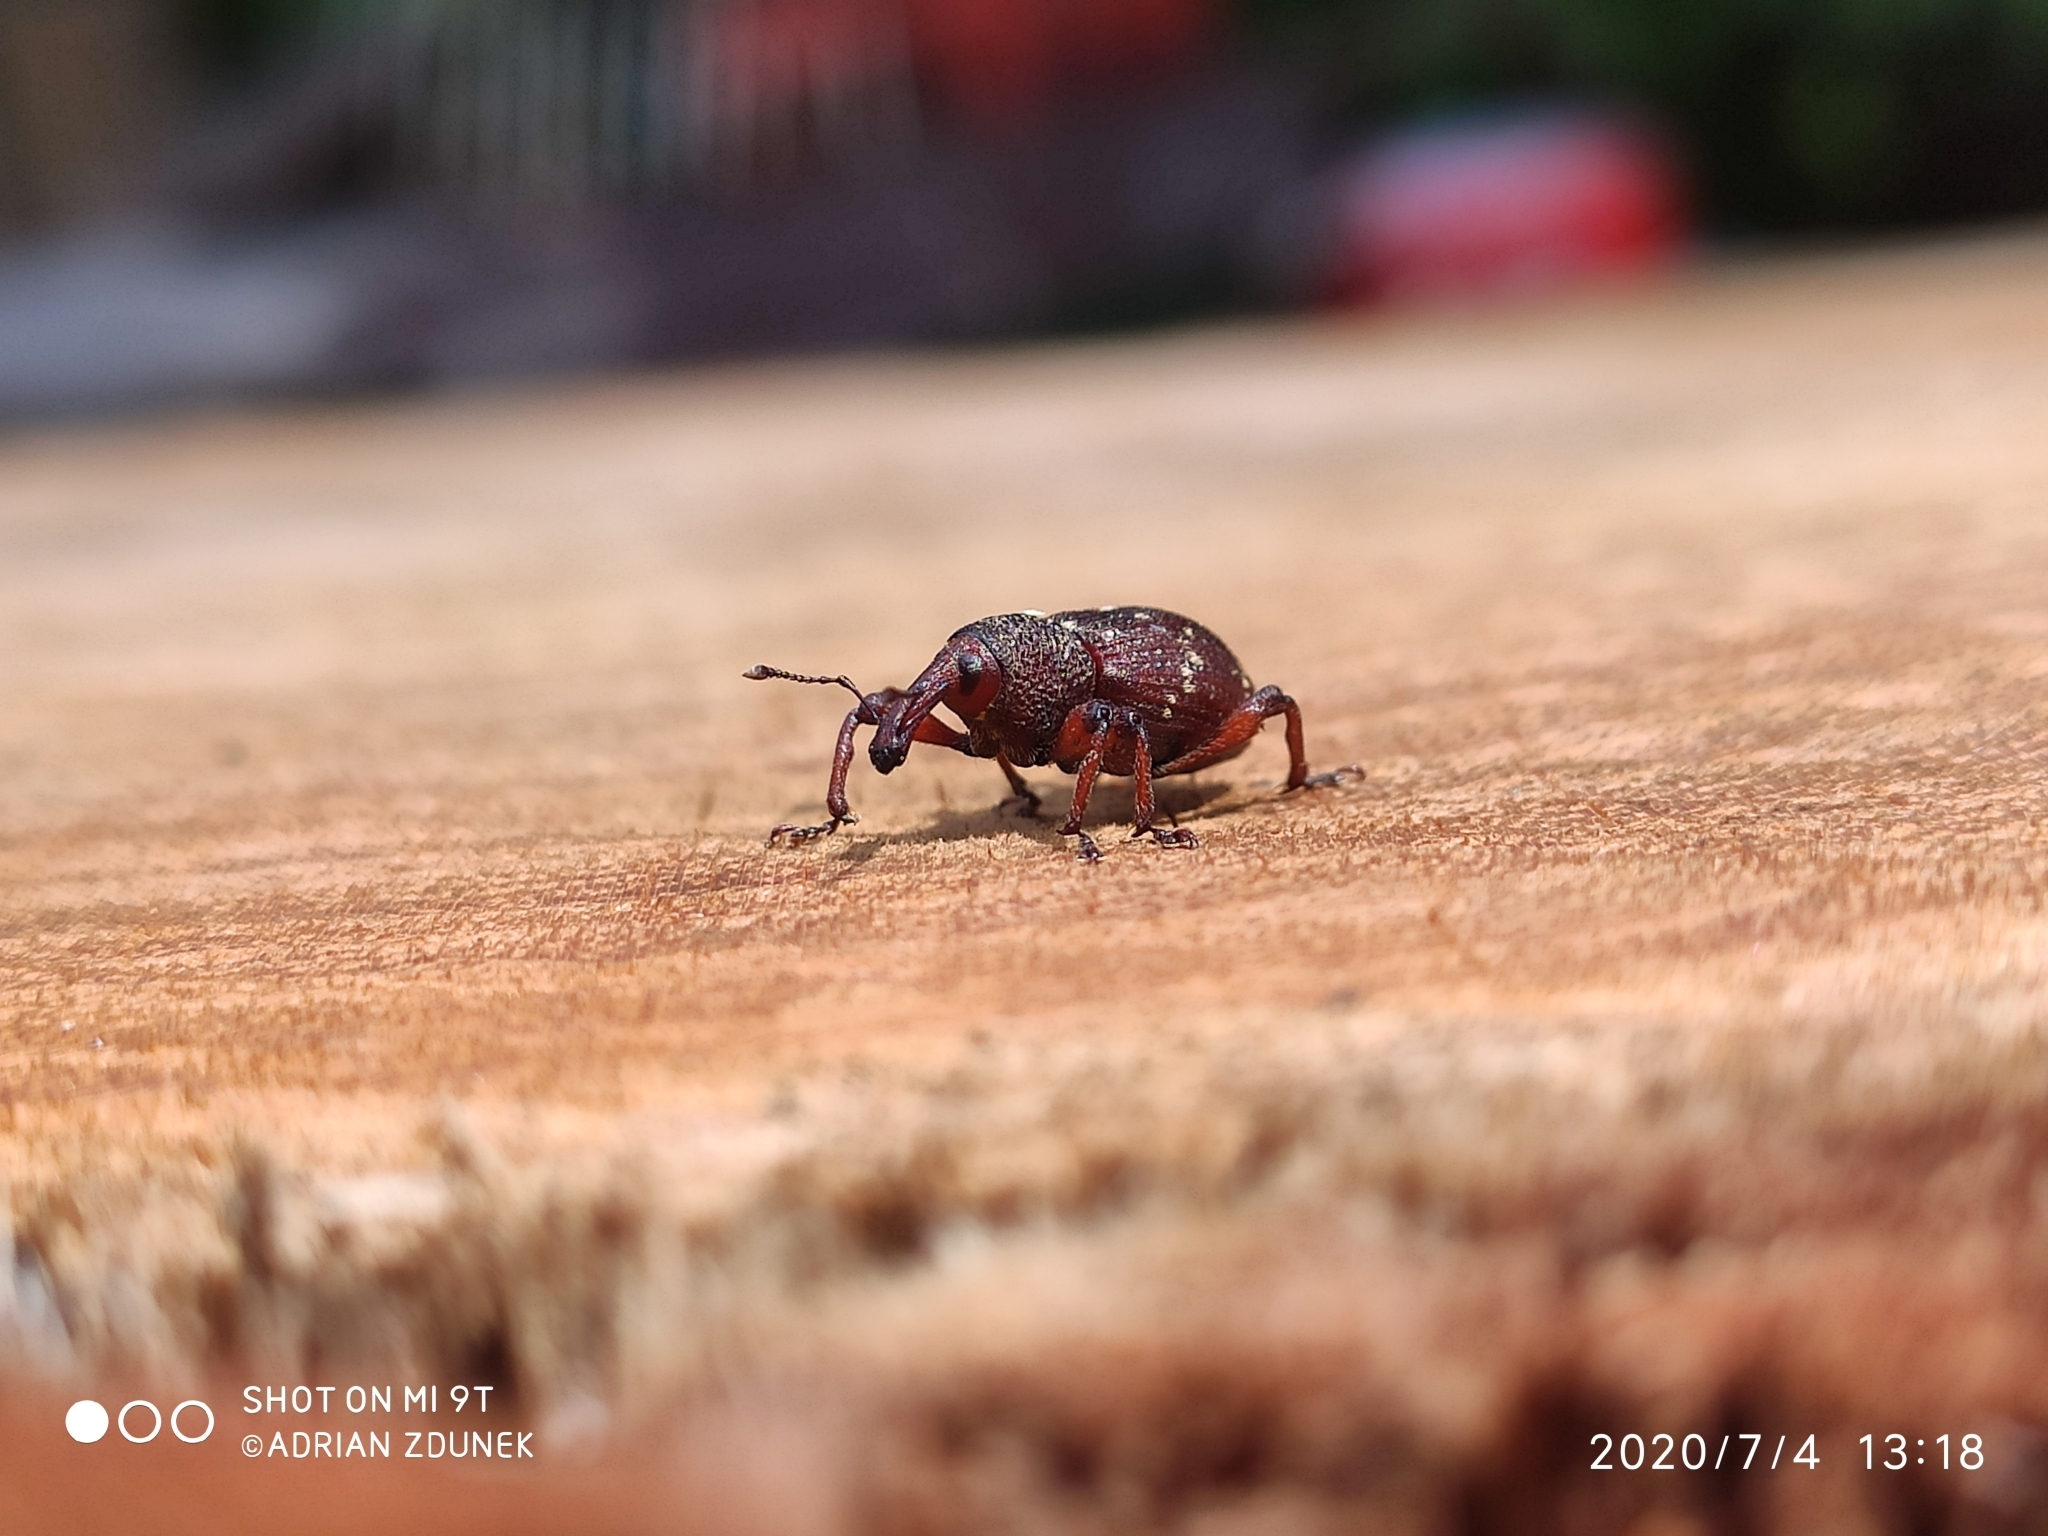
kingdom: Animalia
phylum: Arthropoda
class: Insecta
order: Coleoptera
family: Curculionidae
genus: Hylobius
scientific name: Hylobius transversovittatus
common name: Weevil
